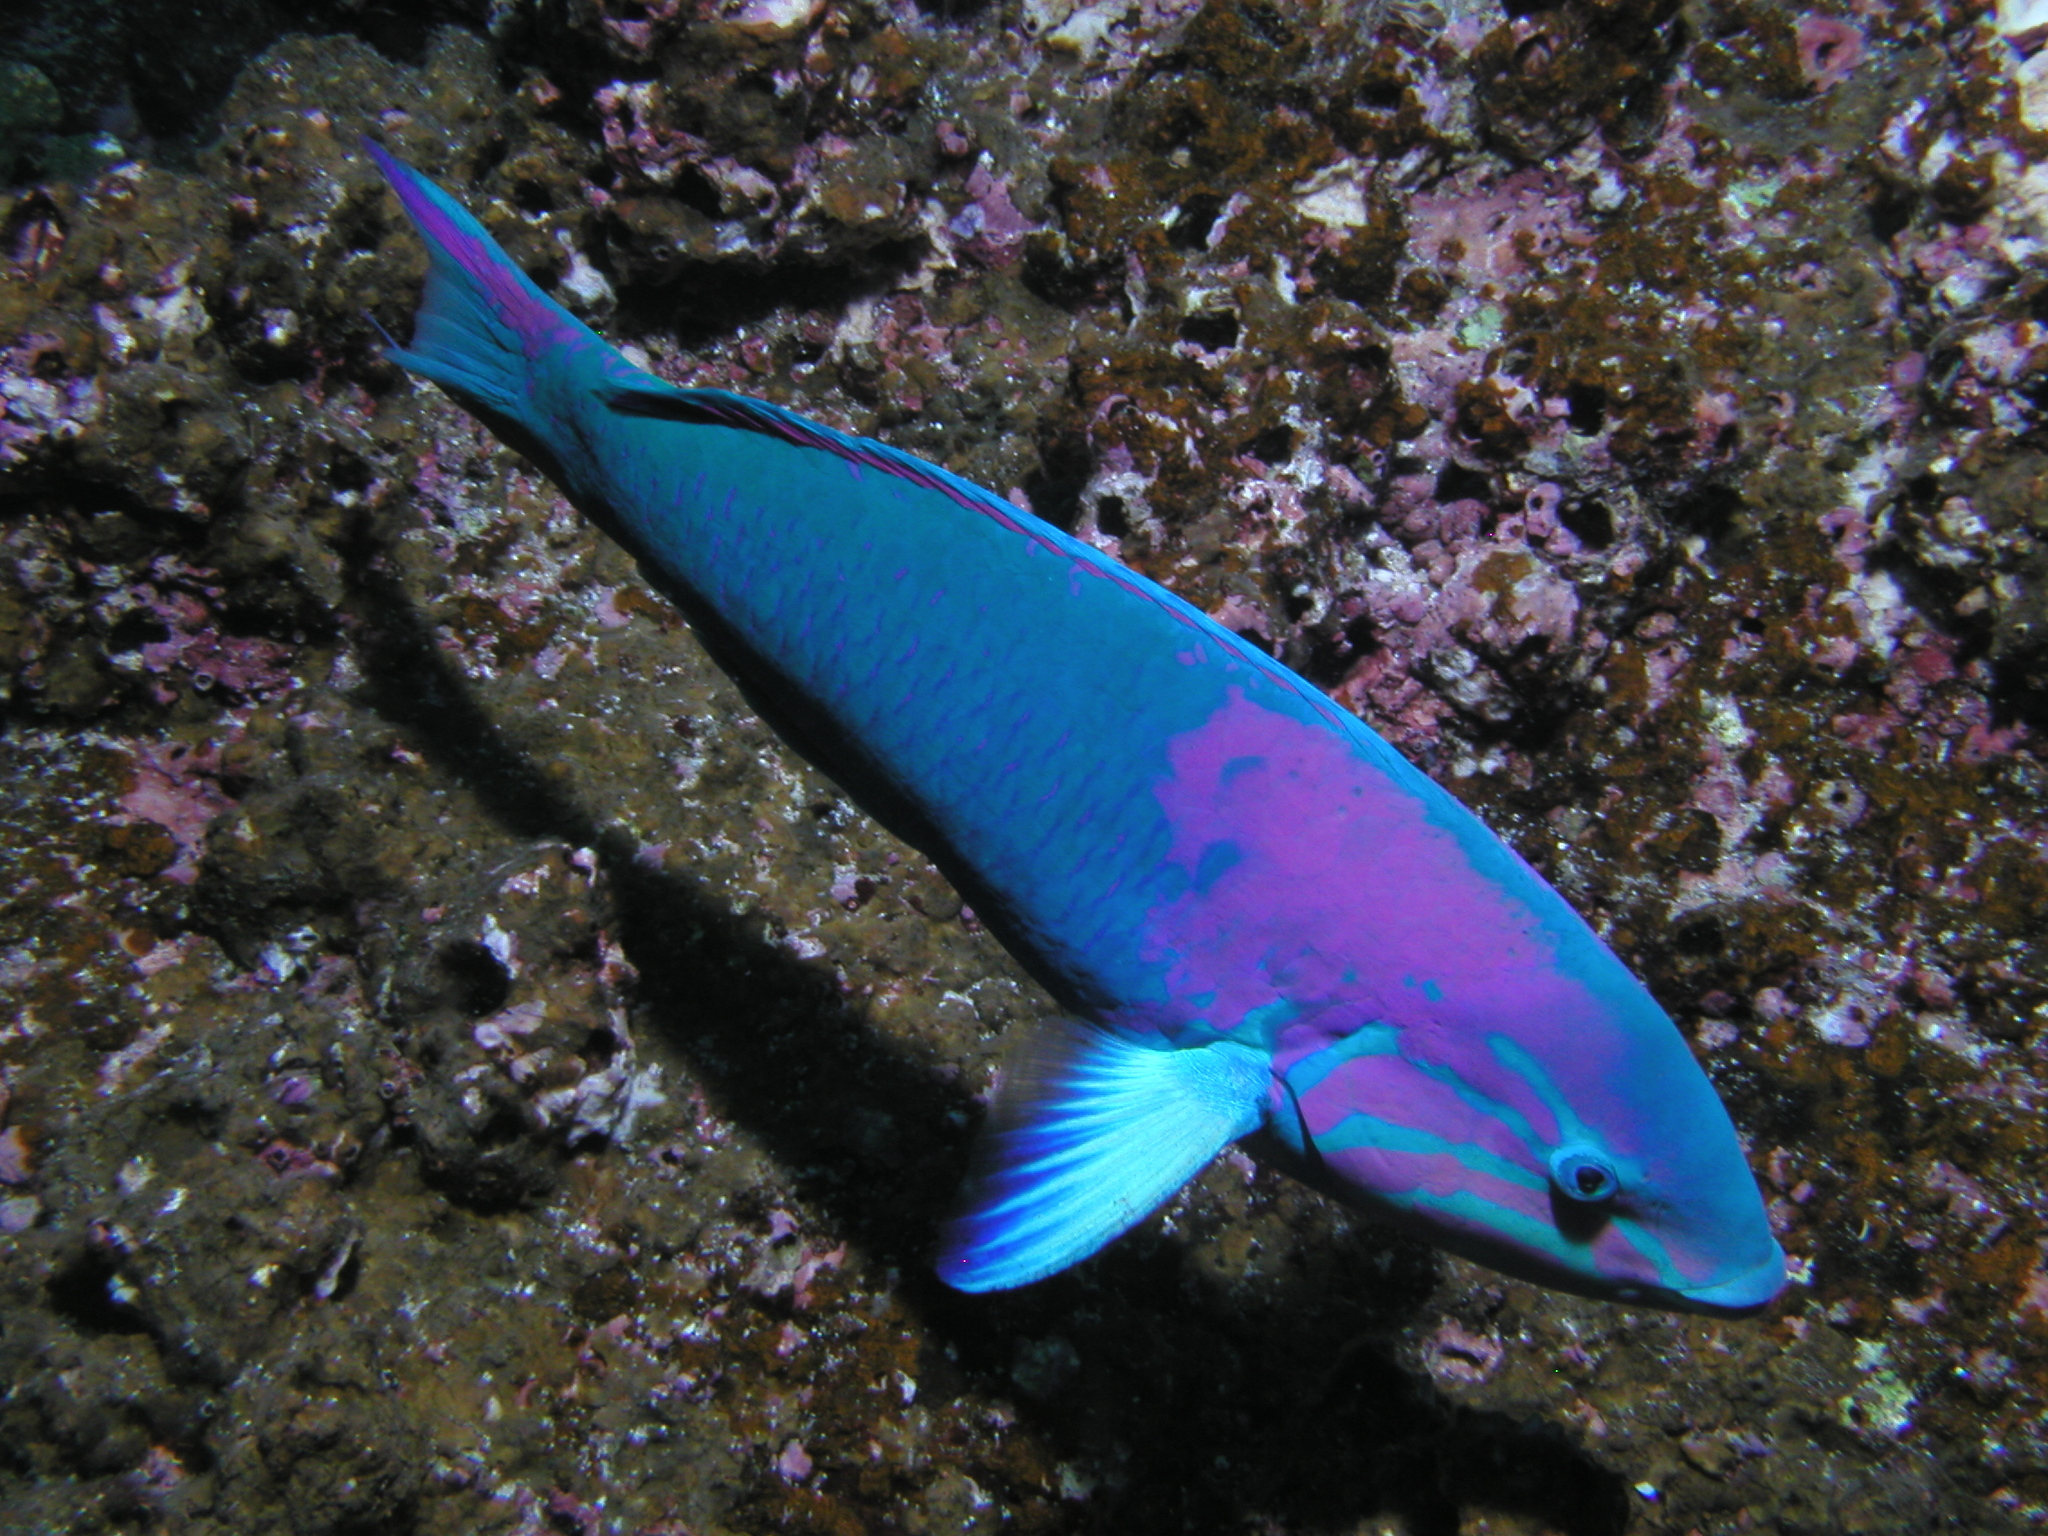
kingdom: Animalia
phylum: Chordata
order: Perciformes
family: Labridae
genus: Thalassoma
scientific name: Thalassoma grammaticum
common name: Sunset wrasse
